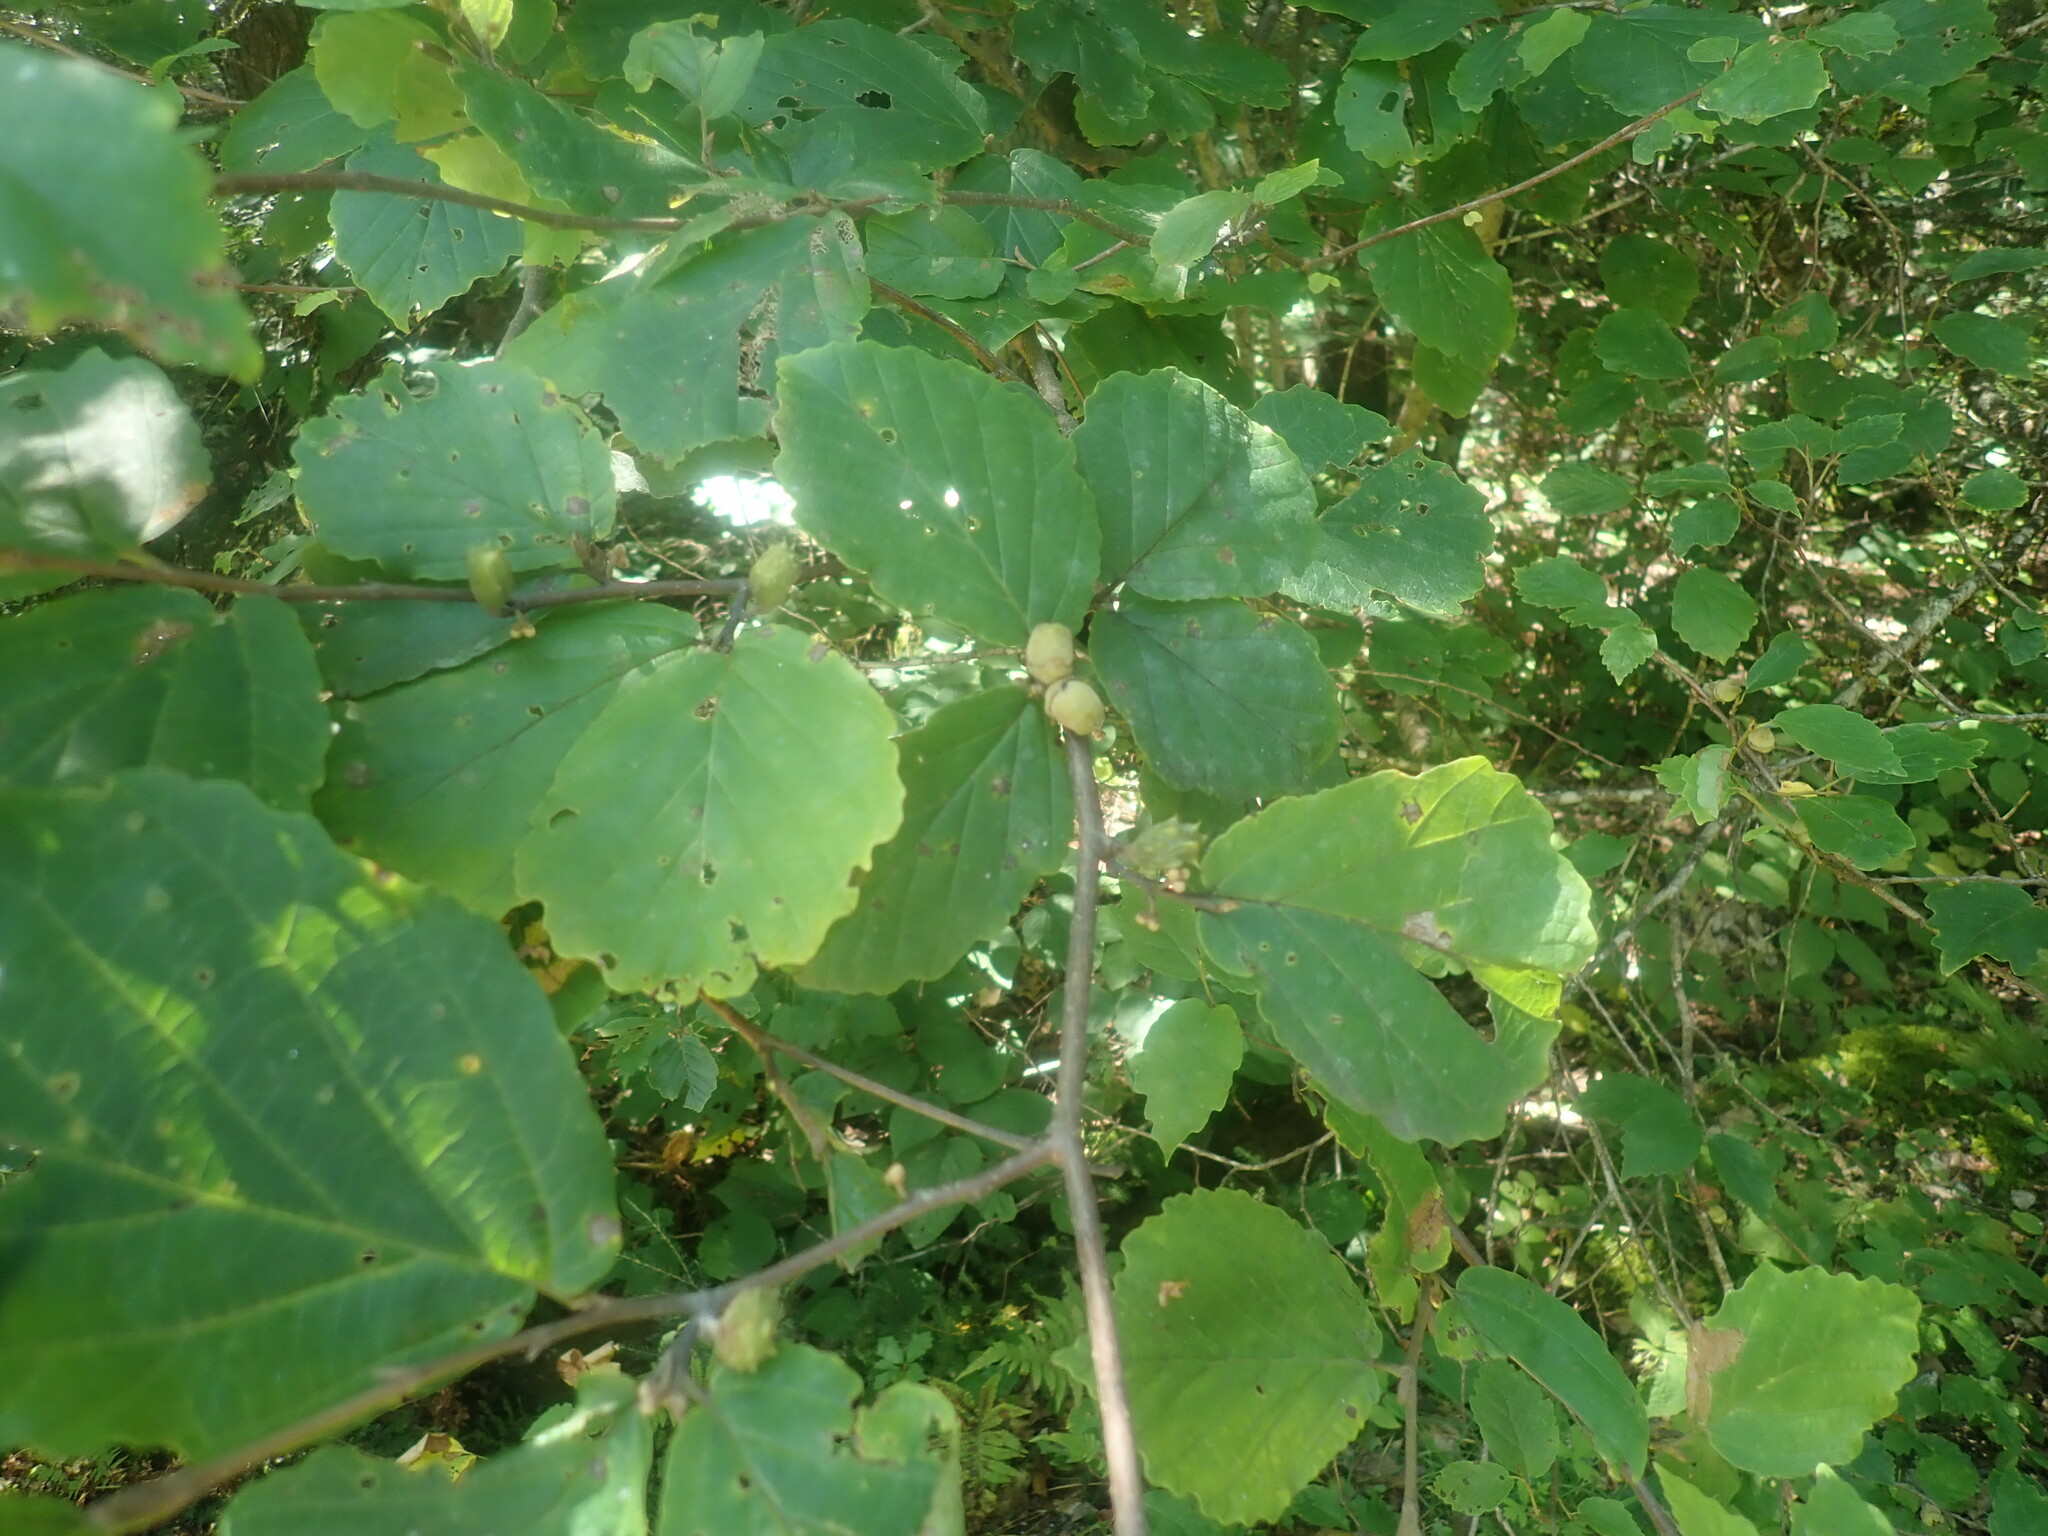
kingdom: Plantae
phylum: Tracheophyta
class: Magnoliopsida
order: Saxifragales
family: Hamamelidaceae
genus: Hamamelis
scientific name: Hamamelis virginiana
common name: Witch-hazel
